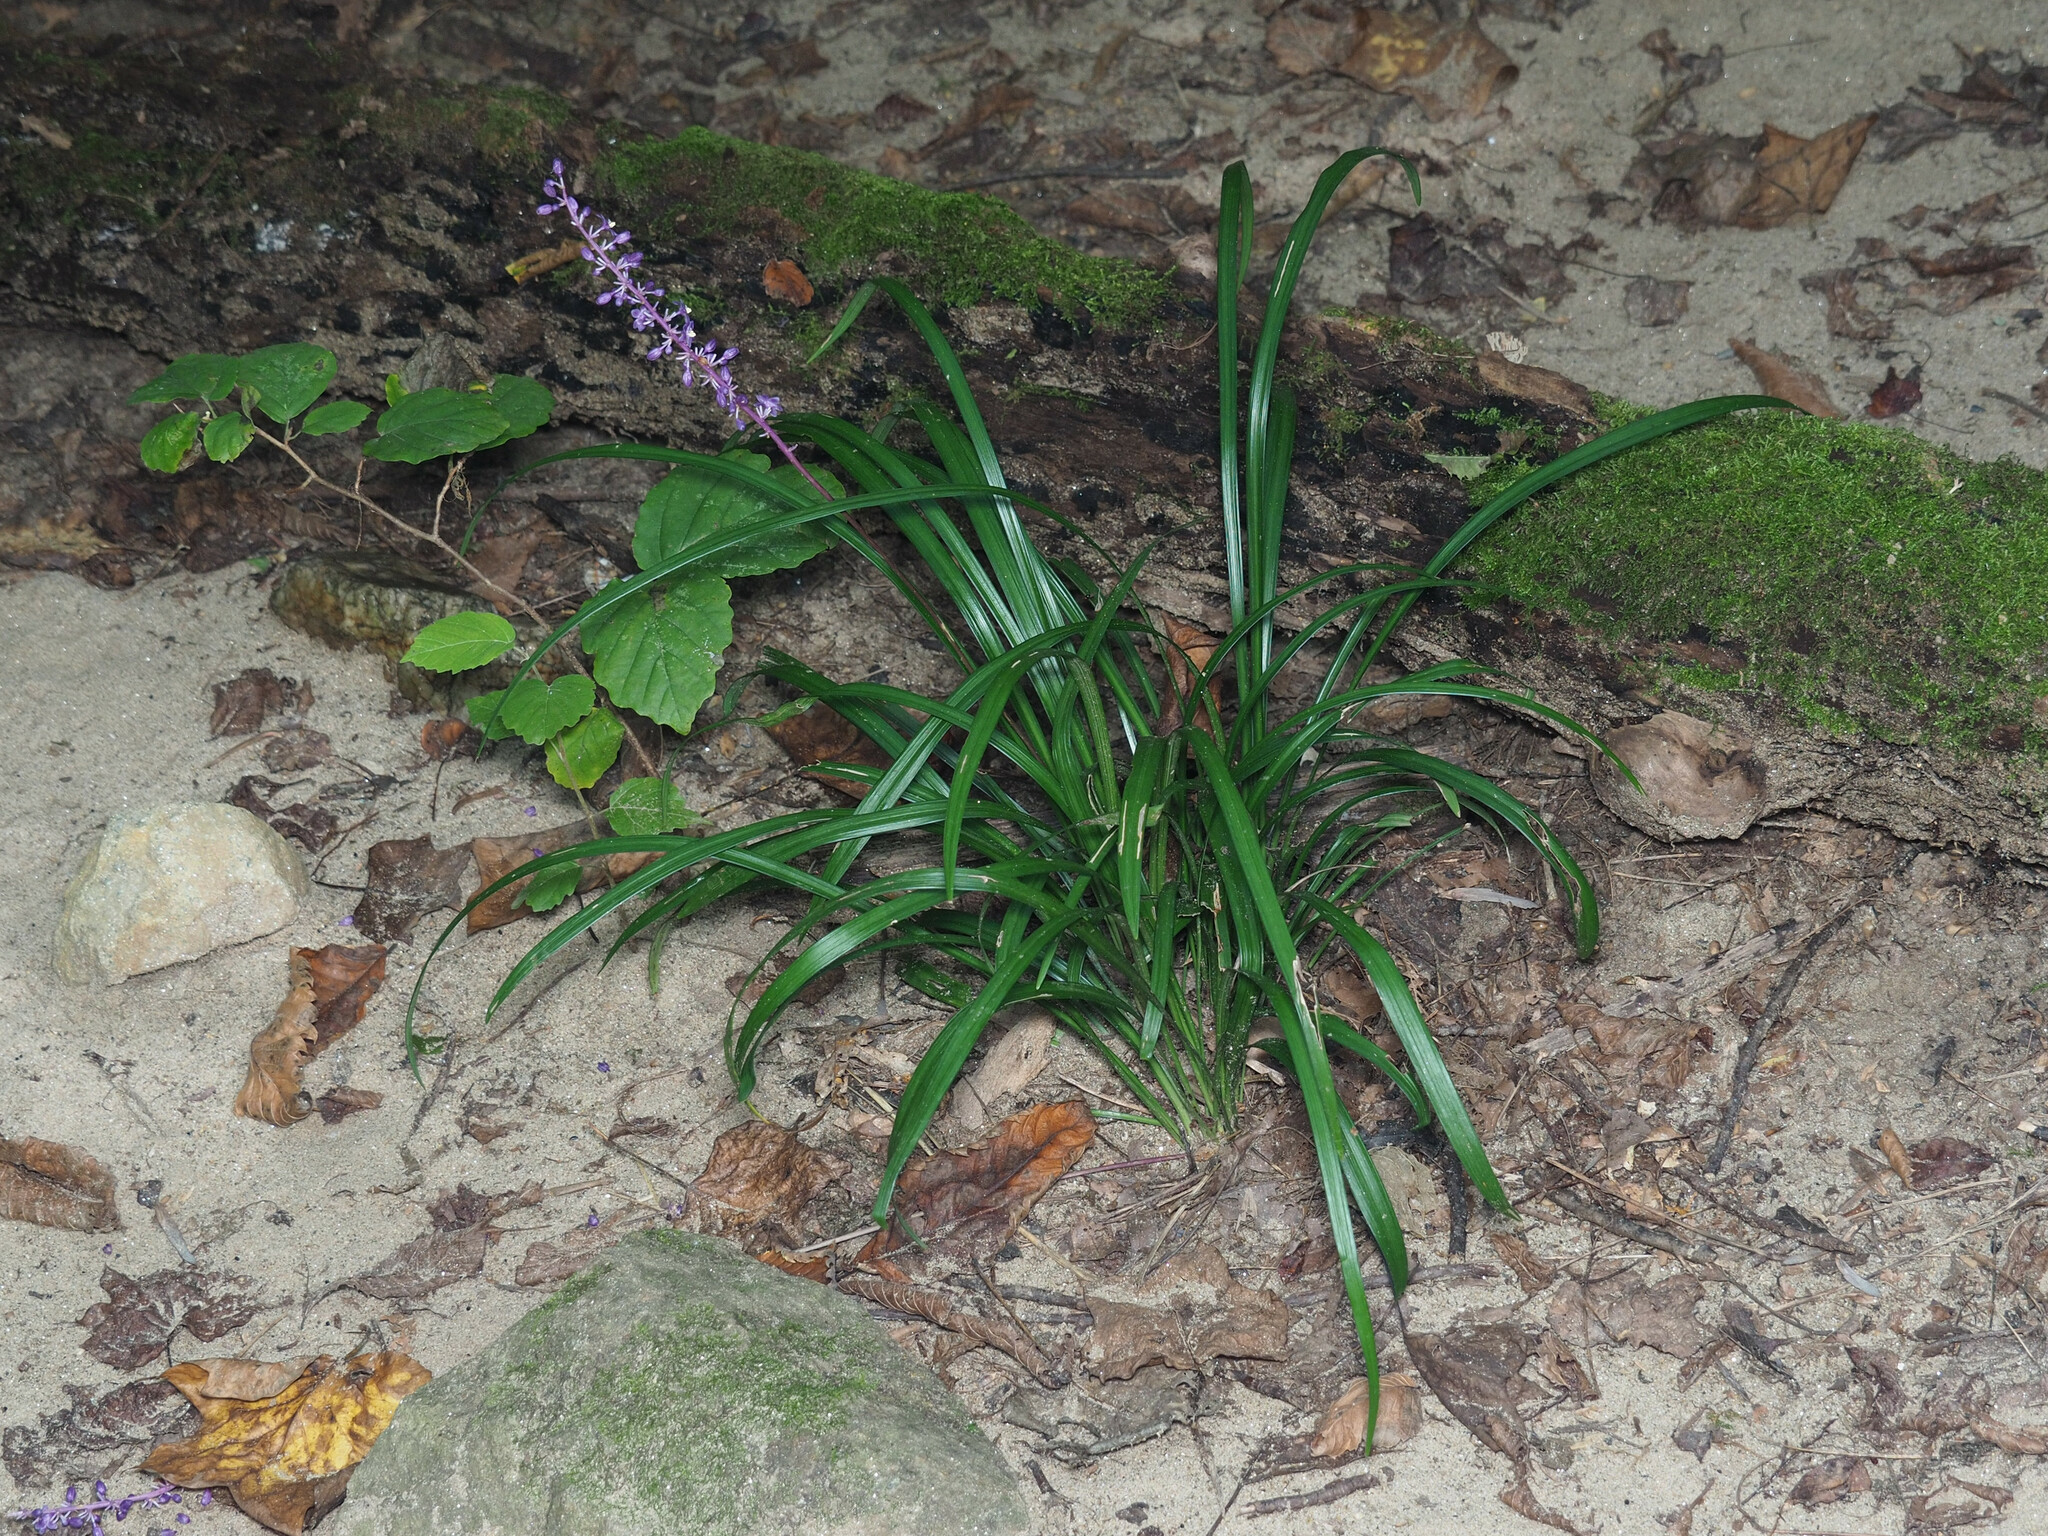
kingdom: Plantae
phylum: Tracheophyta
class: Liliopsida
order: Asparagales
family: Asparagaceae
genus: Liriope
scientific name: Liriope muscari
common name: Big blue lilyturf
